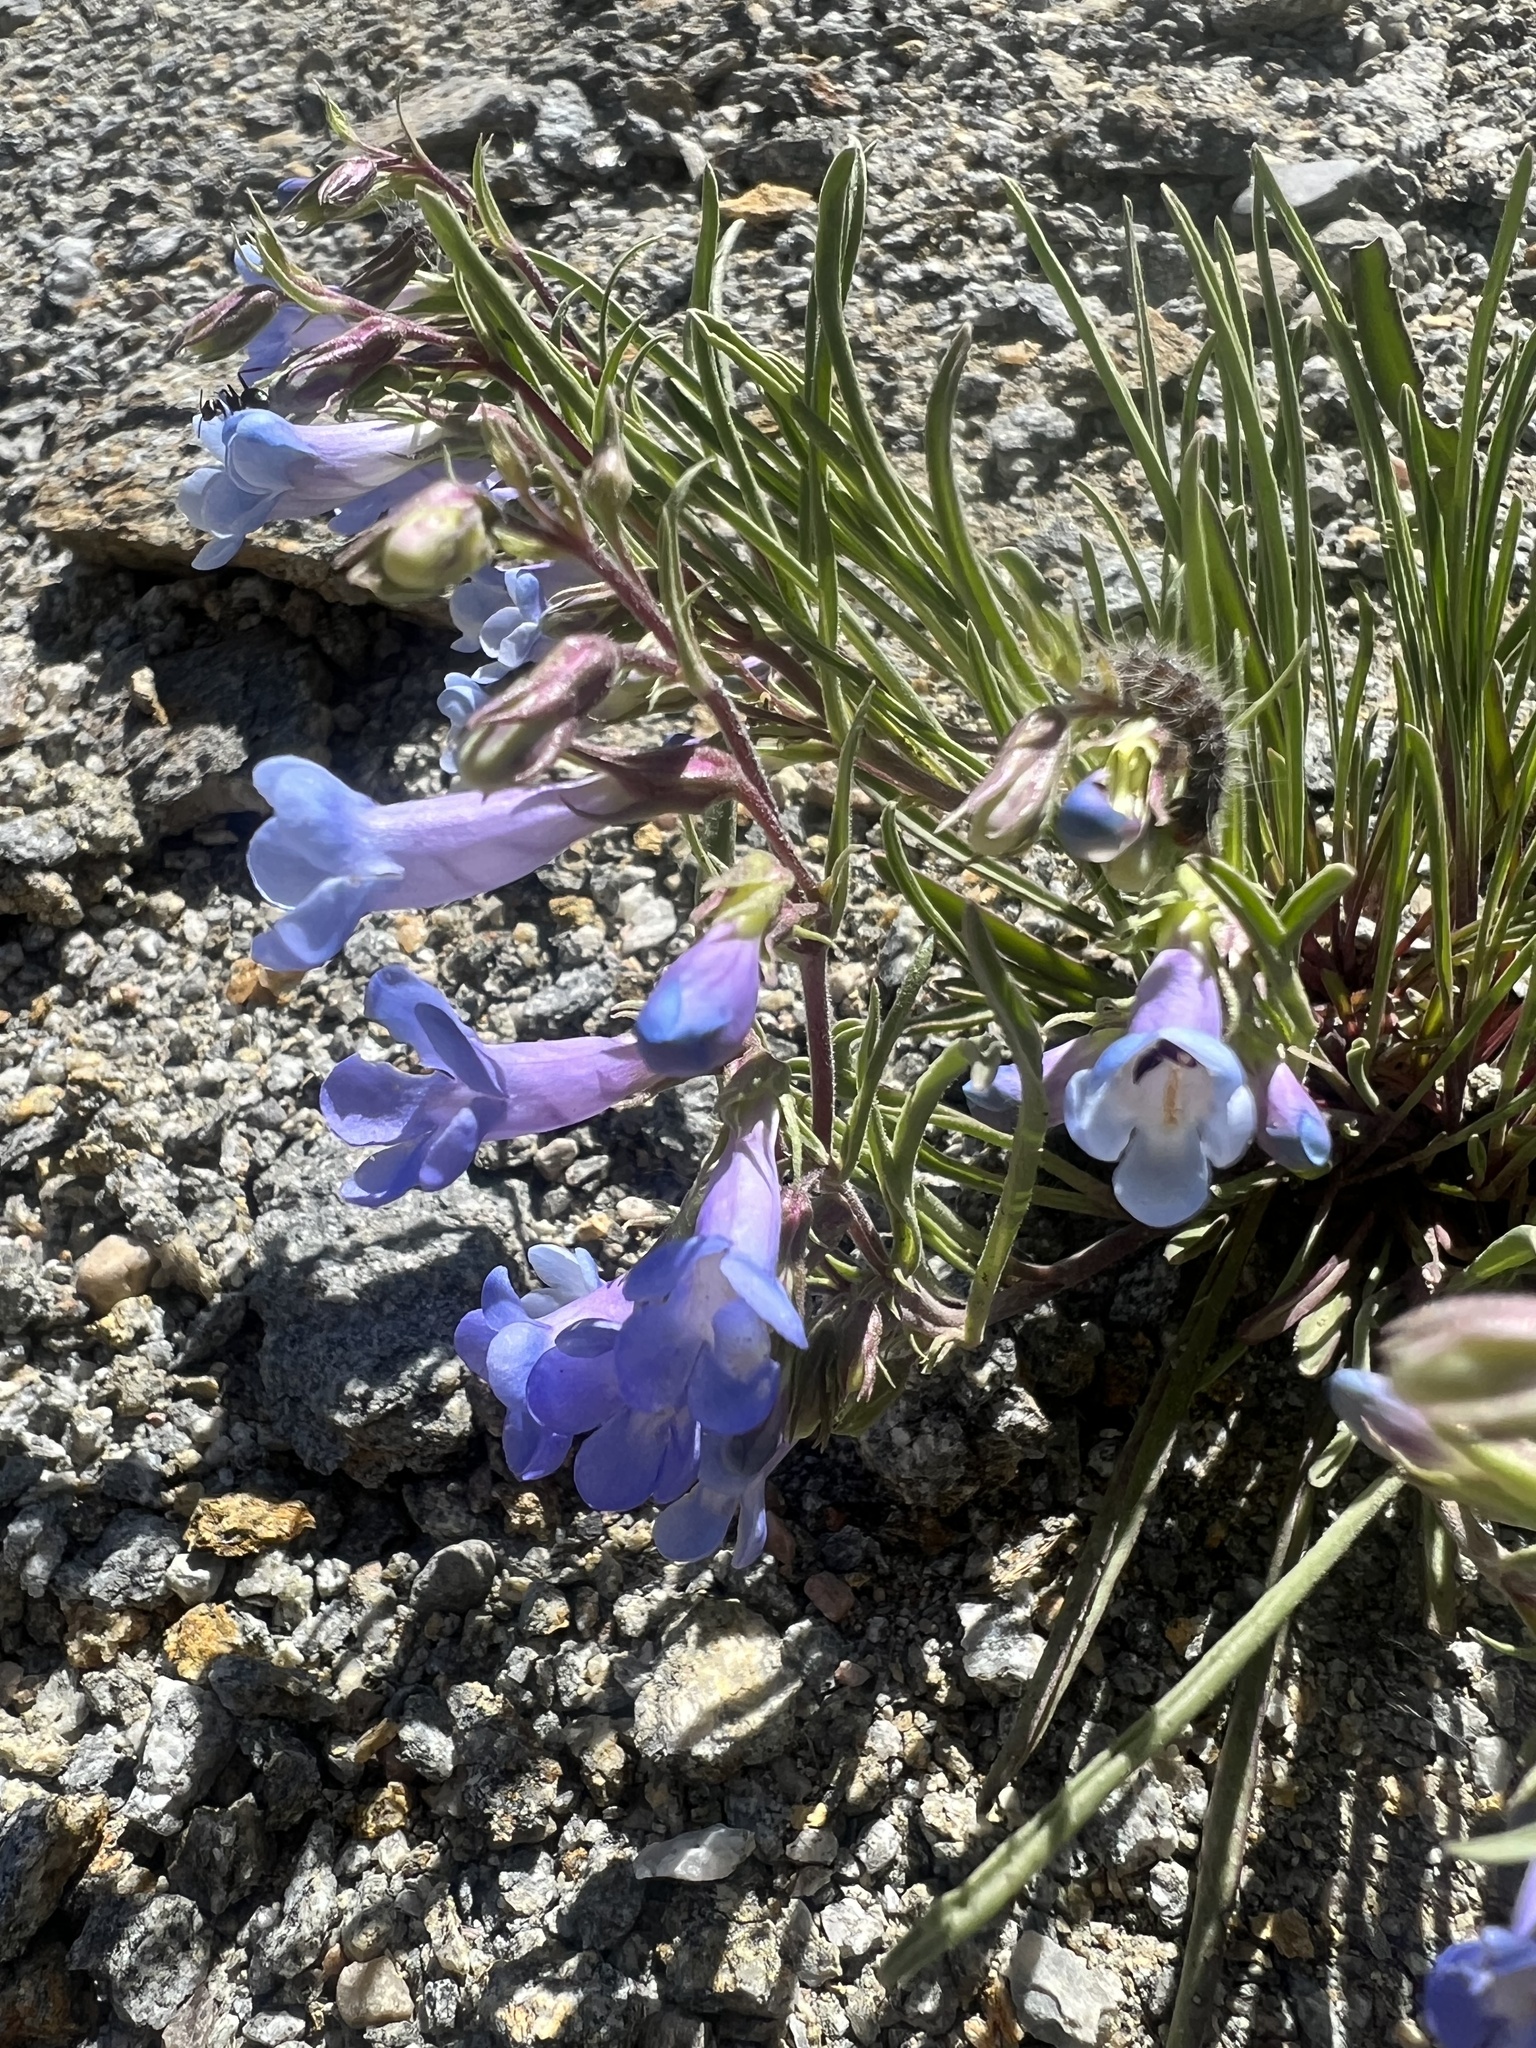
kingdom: Plantae
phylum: Tracheophyta
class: Magnoliopsida
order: Lamiales
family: Plantaginaceae
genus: Penstemon
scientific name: Penstemon penlandii
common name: Penland's beardtongue
